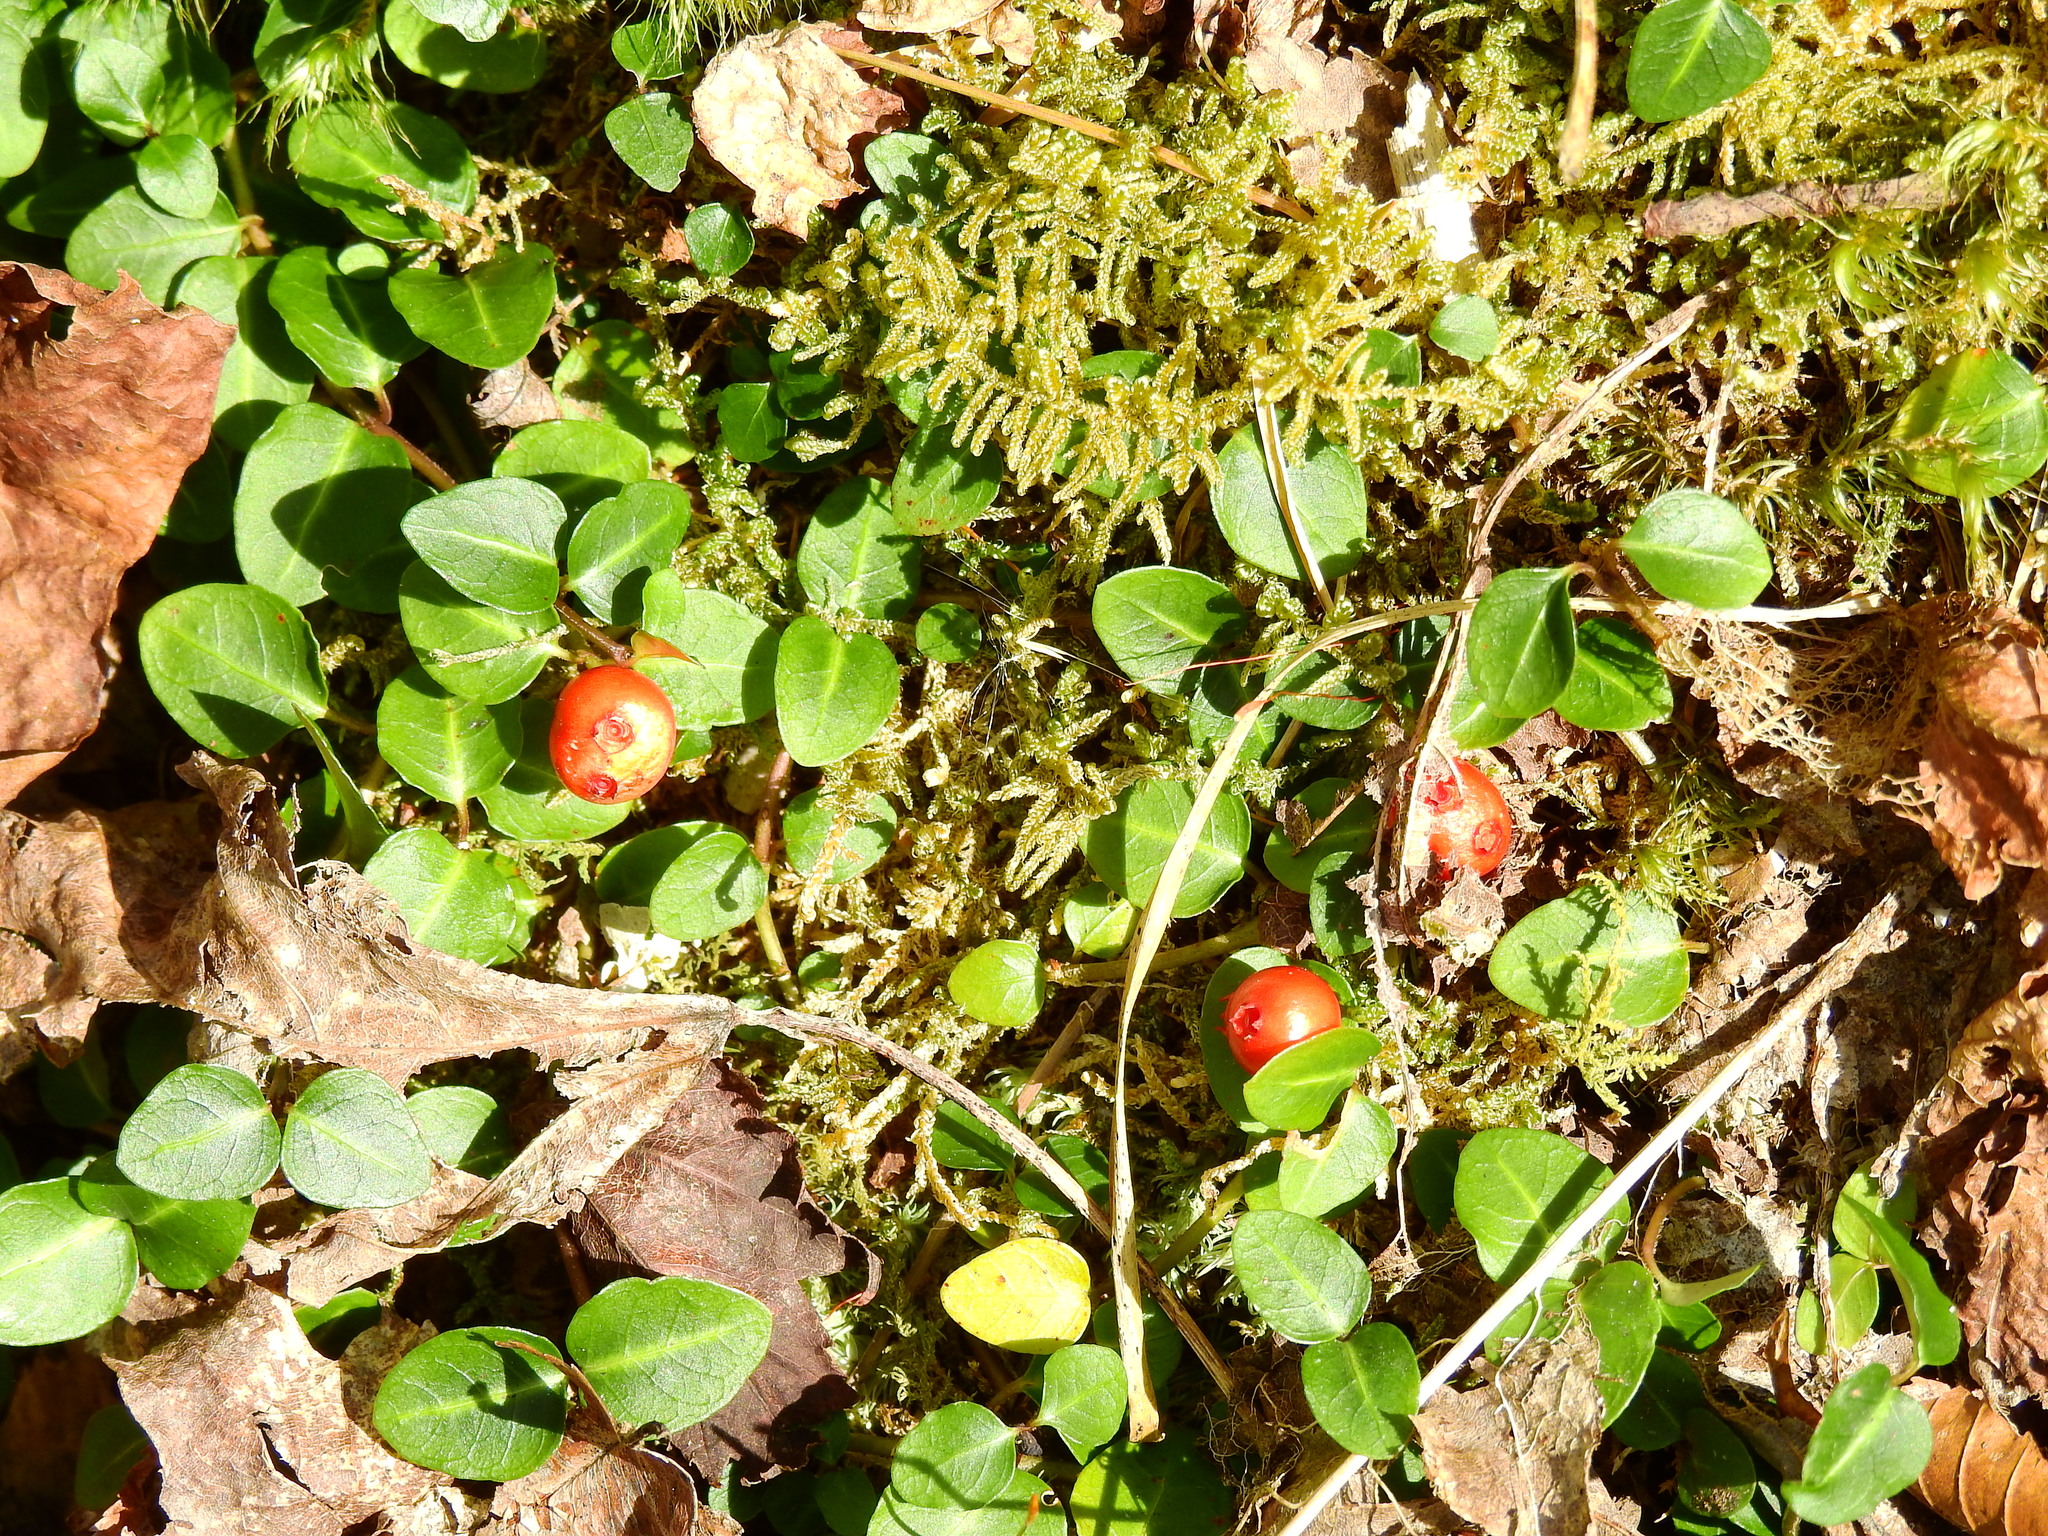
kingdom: Plantae
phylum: Tracheophyta
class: Magnoliopsida
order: Gentianales
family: Rubiaceae
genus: Mitchella
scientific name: Mitchella repens
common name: Partridge-berry
